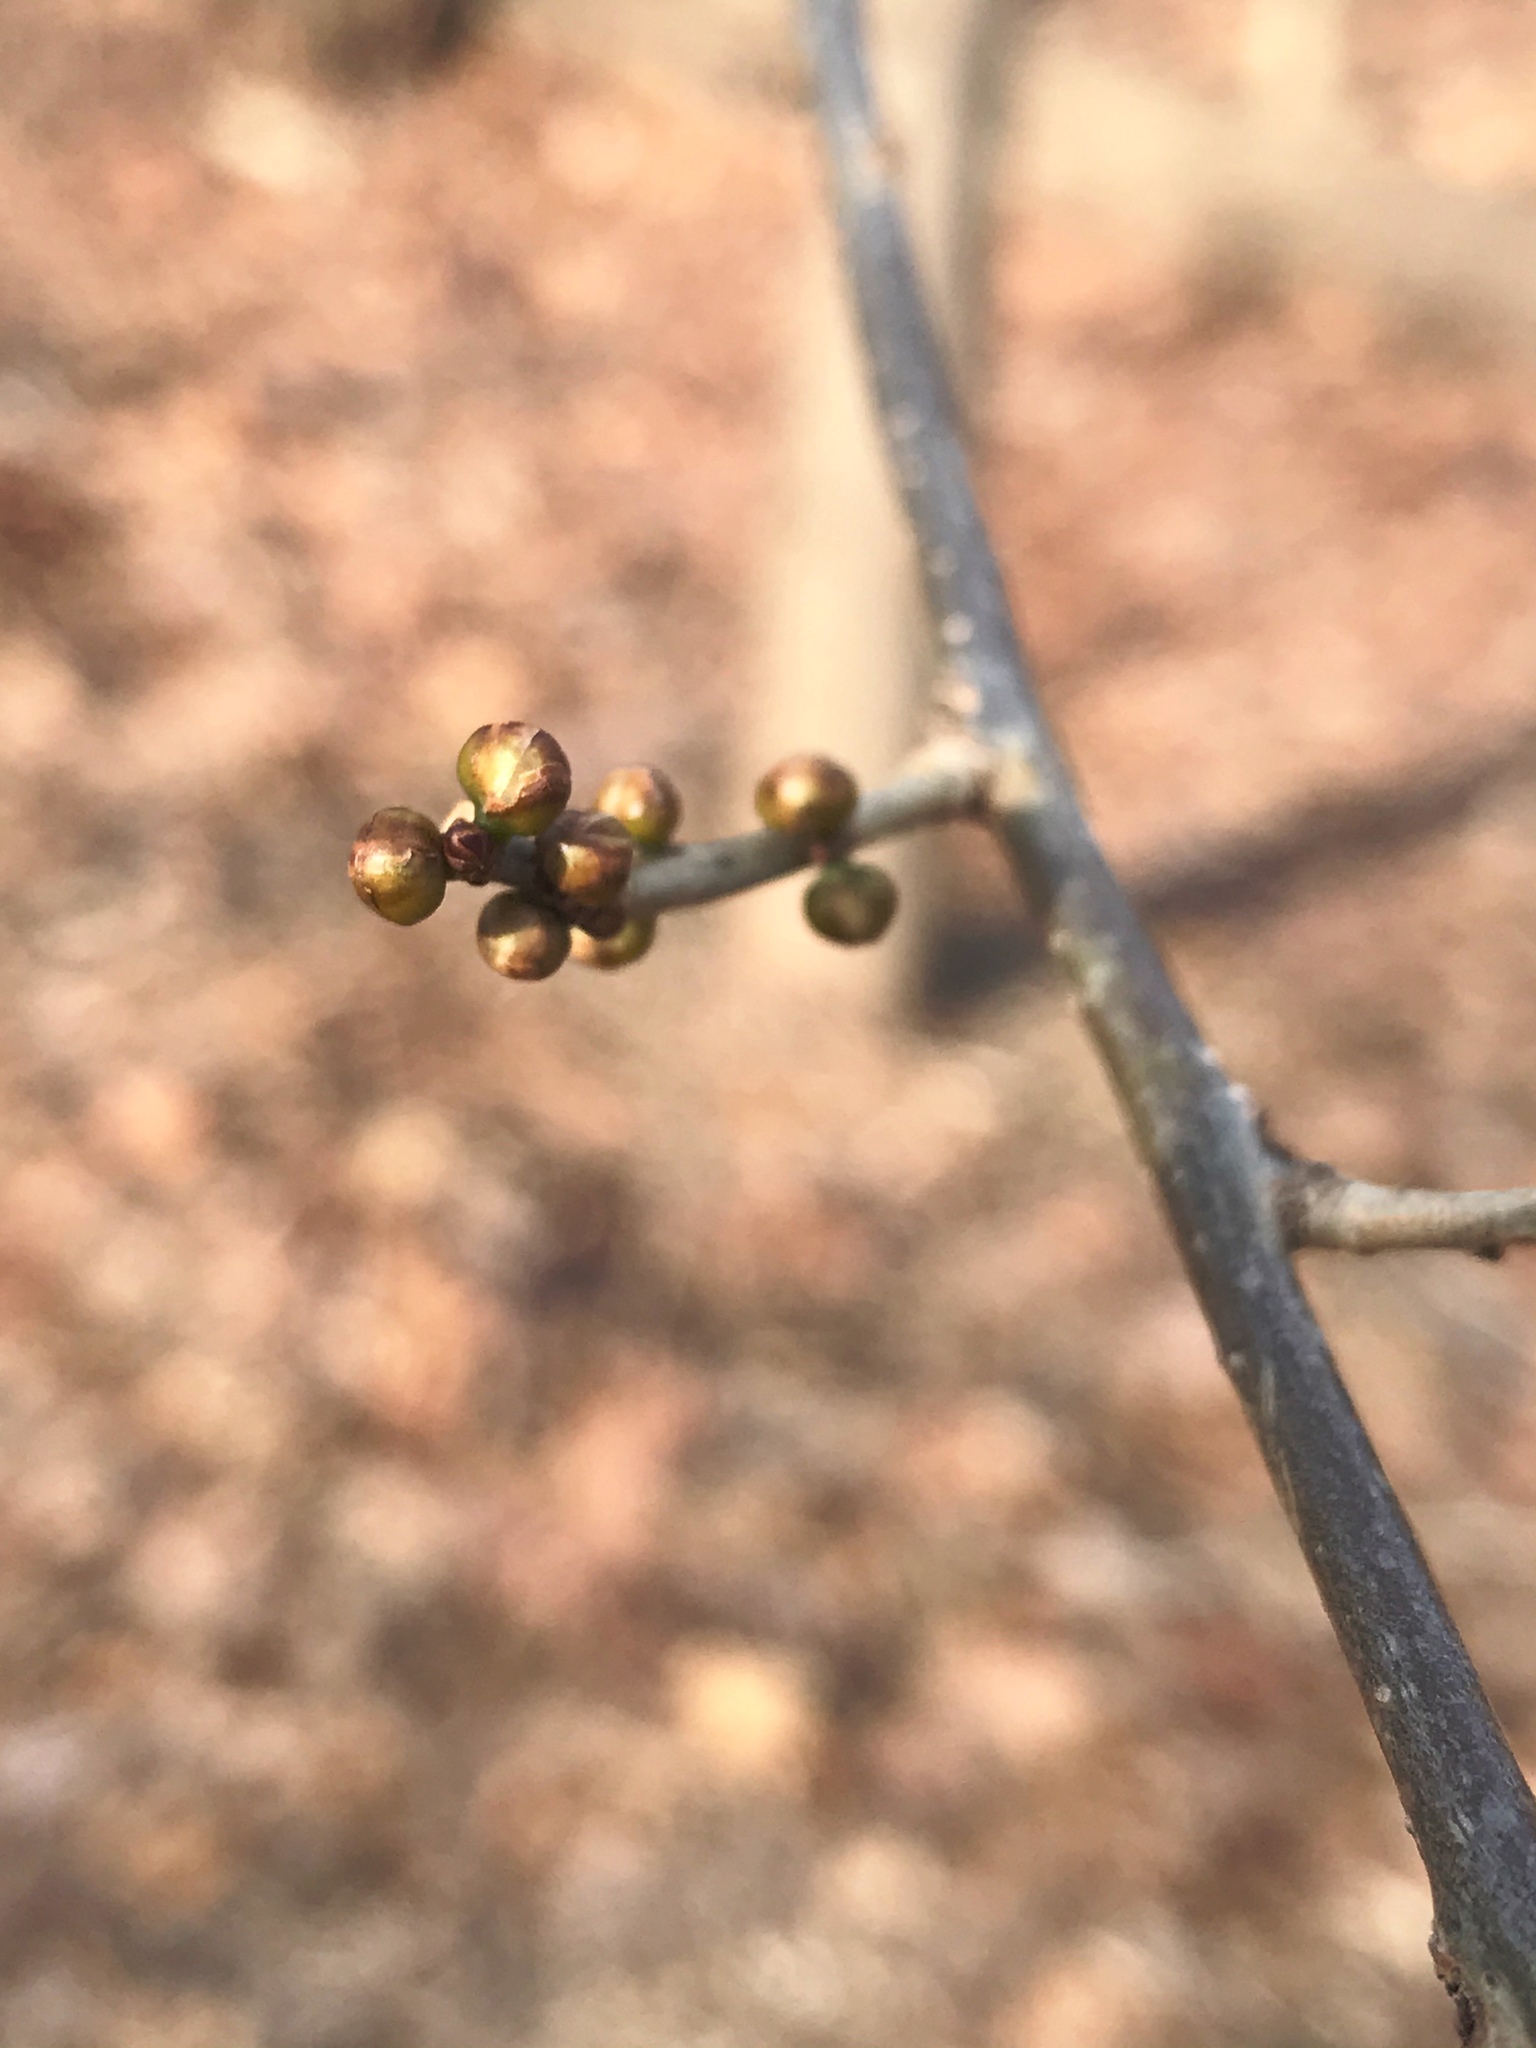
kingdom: Plantae
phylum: Tracheophyta
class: Magnoliopsida
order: Laurales
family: Lauraceae
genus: Lindera
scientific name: Lindera benzoin
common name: Spicebush
